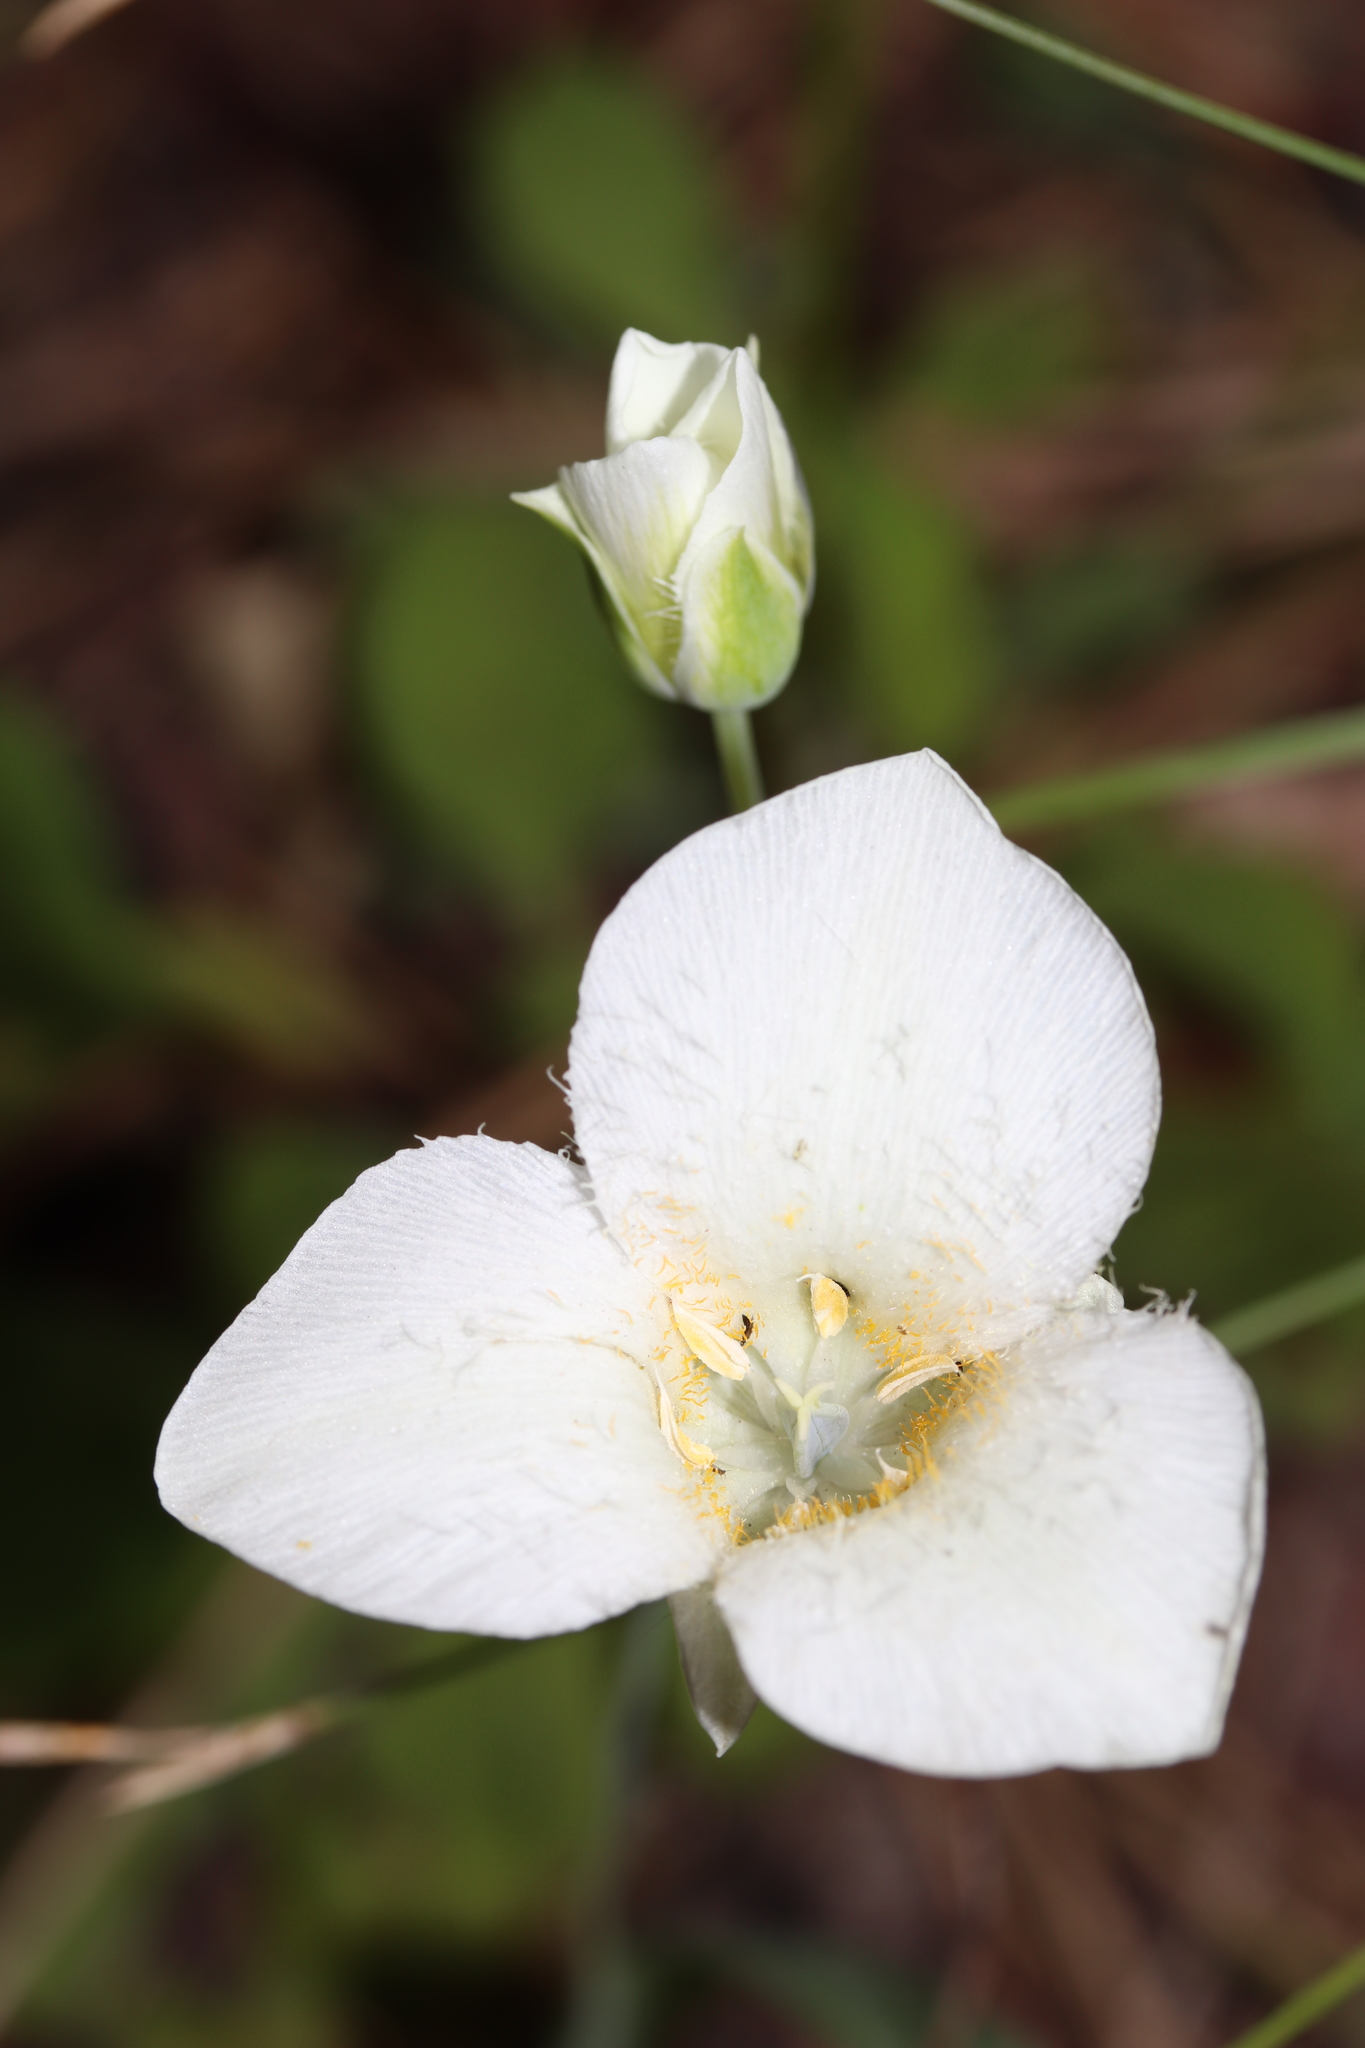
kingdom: Plantae
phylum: Tracheophyta
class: Liliopsida
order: Liliales
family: Liliaceae
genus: Calochortus
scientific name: Calochortus apiculatus
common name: Baker's mariposa lily
